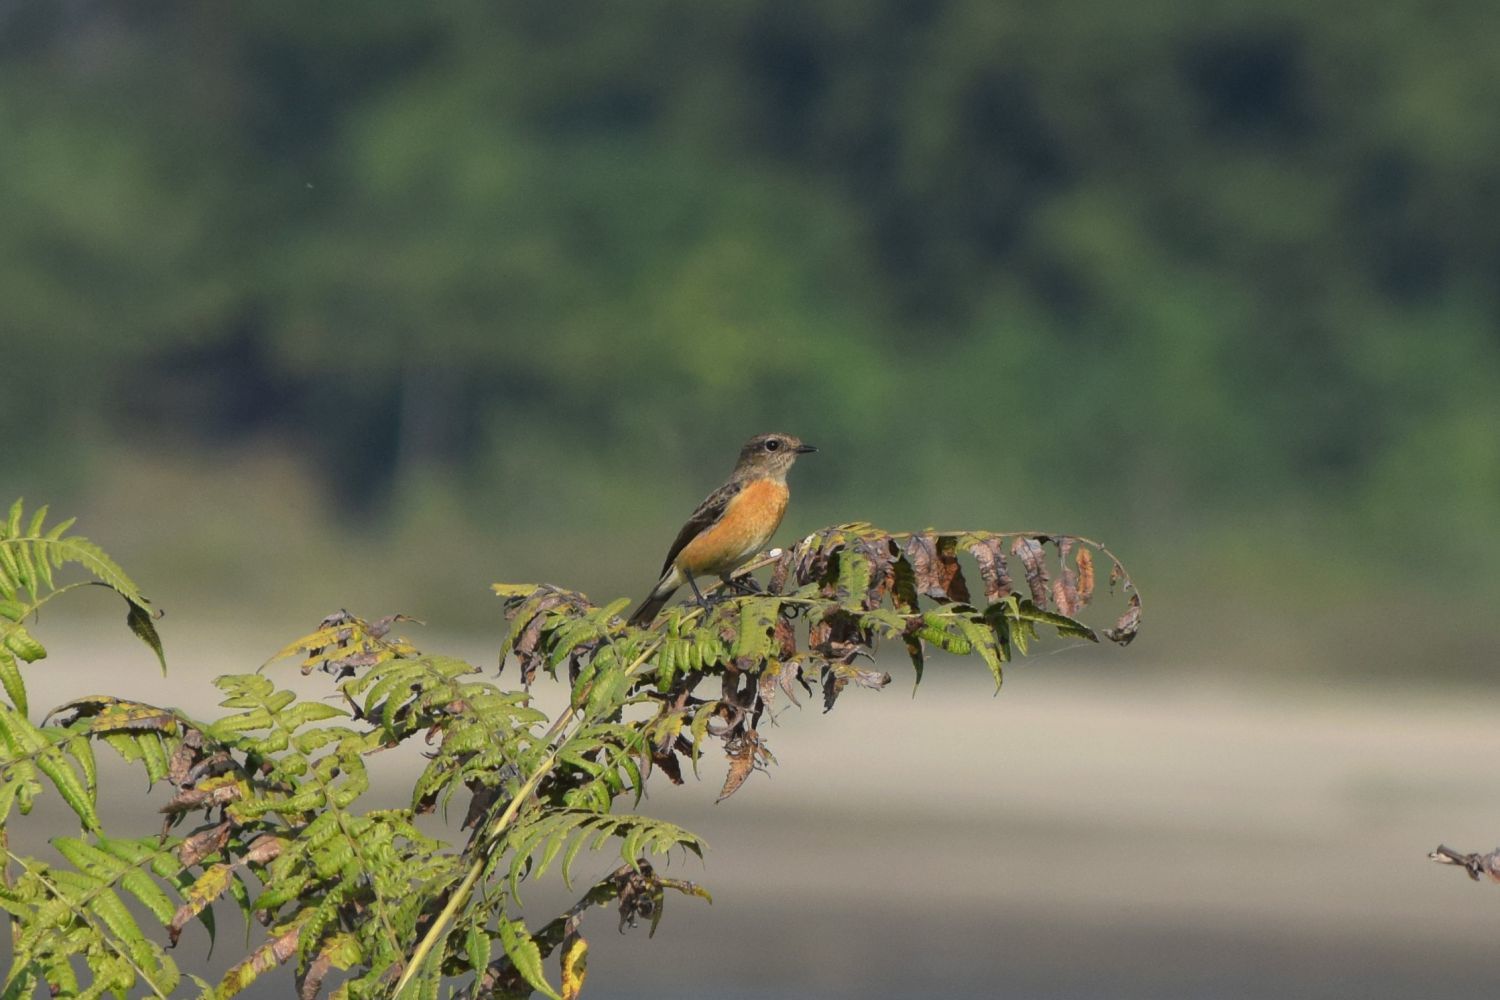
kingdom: Animalia
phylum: Chordata
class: Aves
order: Passeriformes
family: Muscicapidae
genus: Saxicola
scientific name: Saxicola insignis
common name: White-throated bush chat
